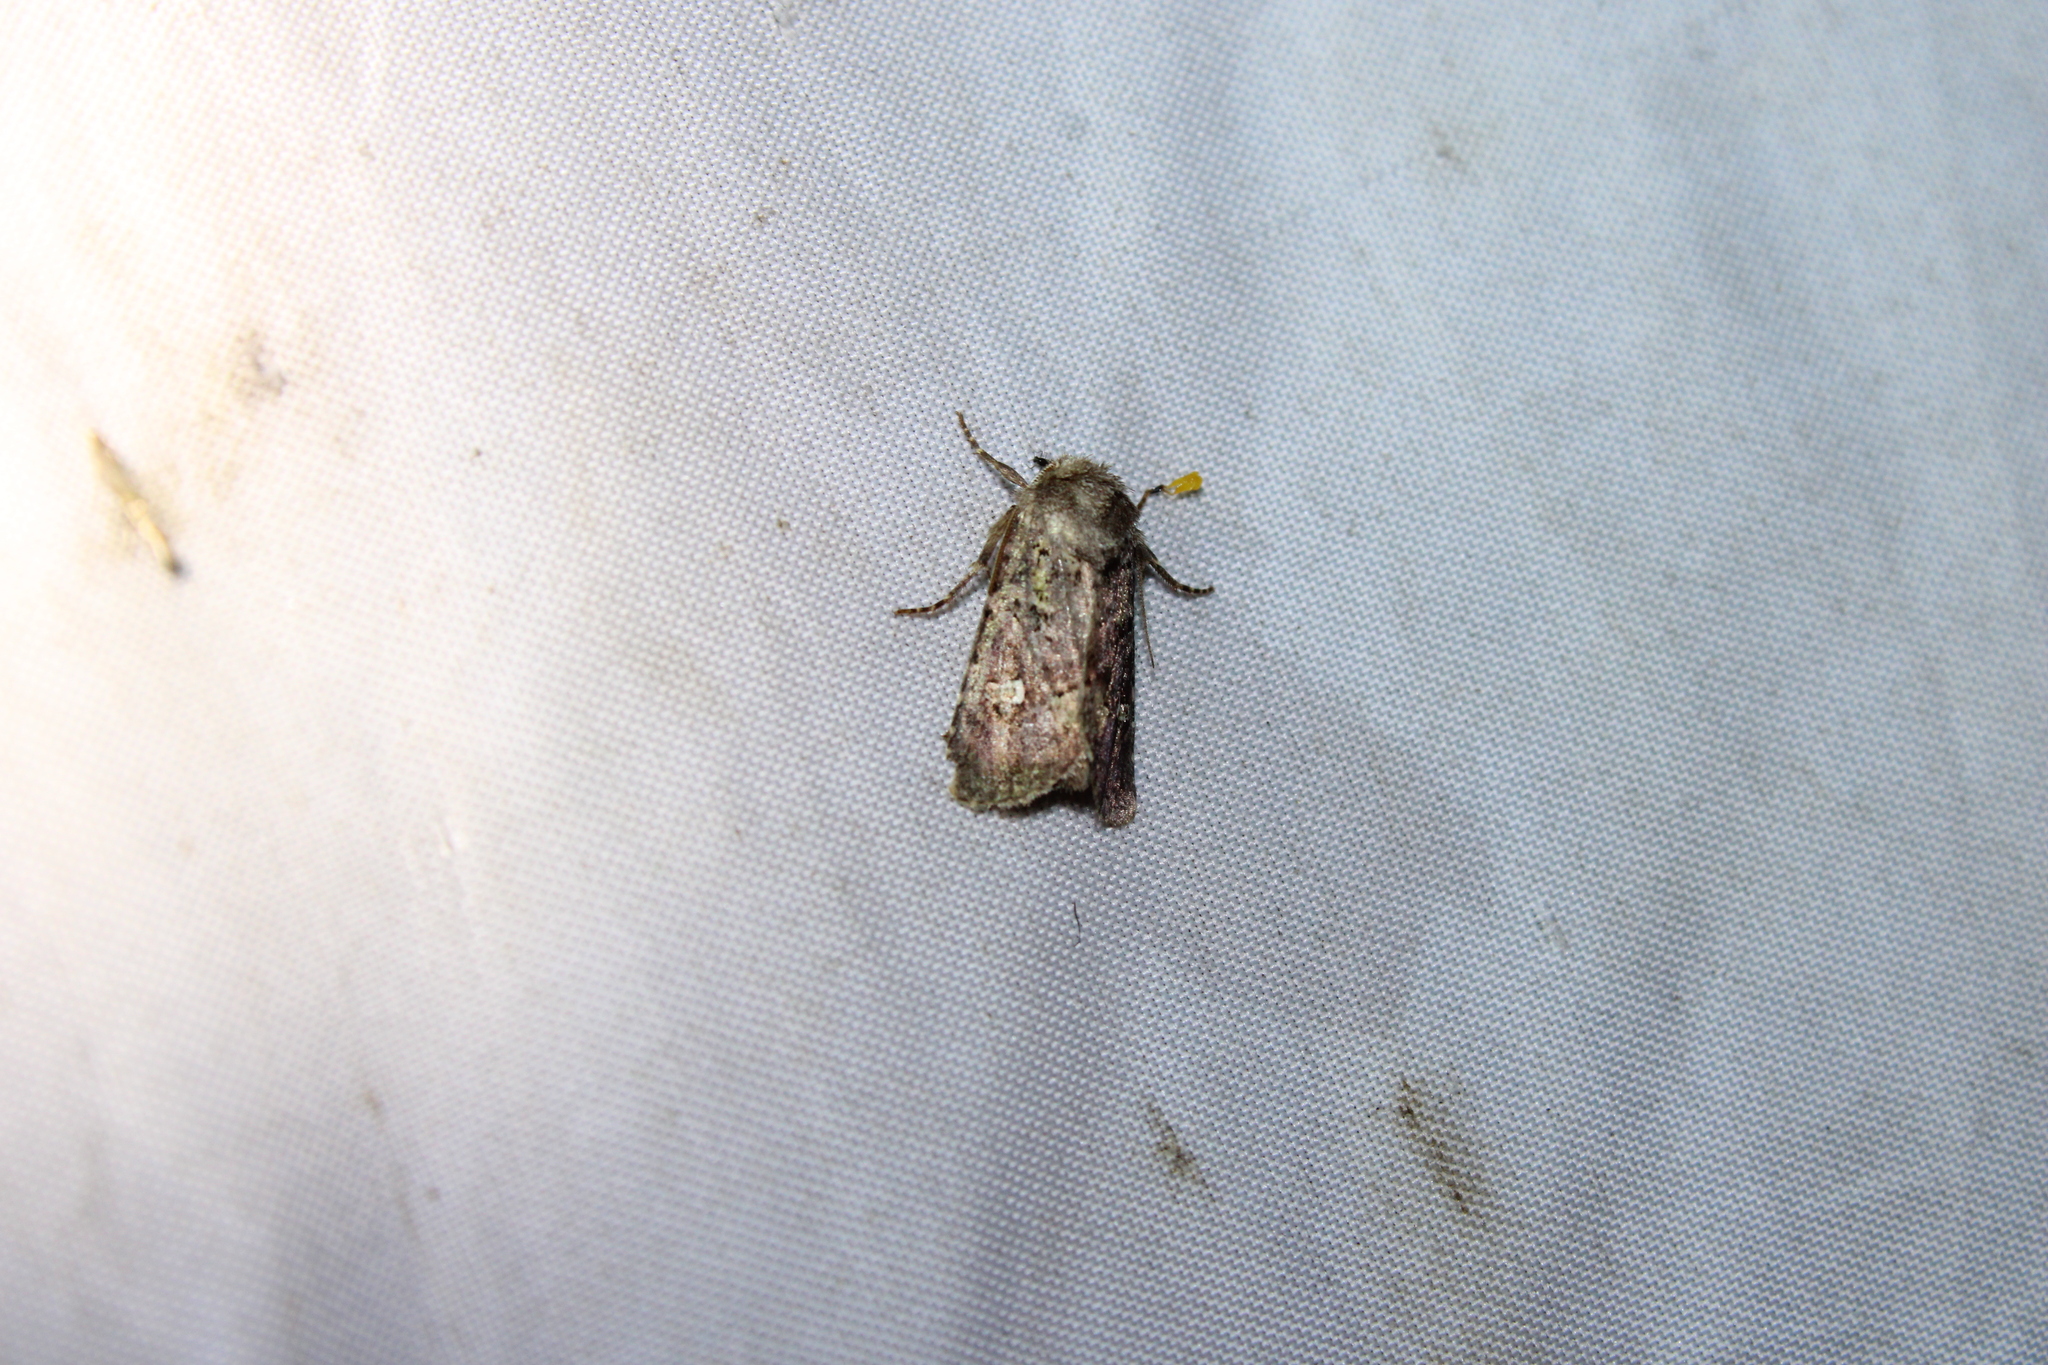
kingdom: Animalia
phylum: Arthropoda
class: Insecta
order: Lepidoptera
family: Noctuidae
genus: Lacinipolia
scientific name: Lacinipolia renigera
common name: Kidney-spotted minor
